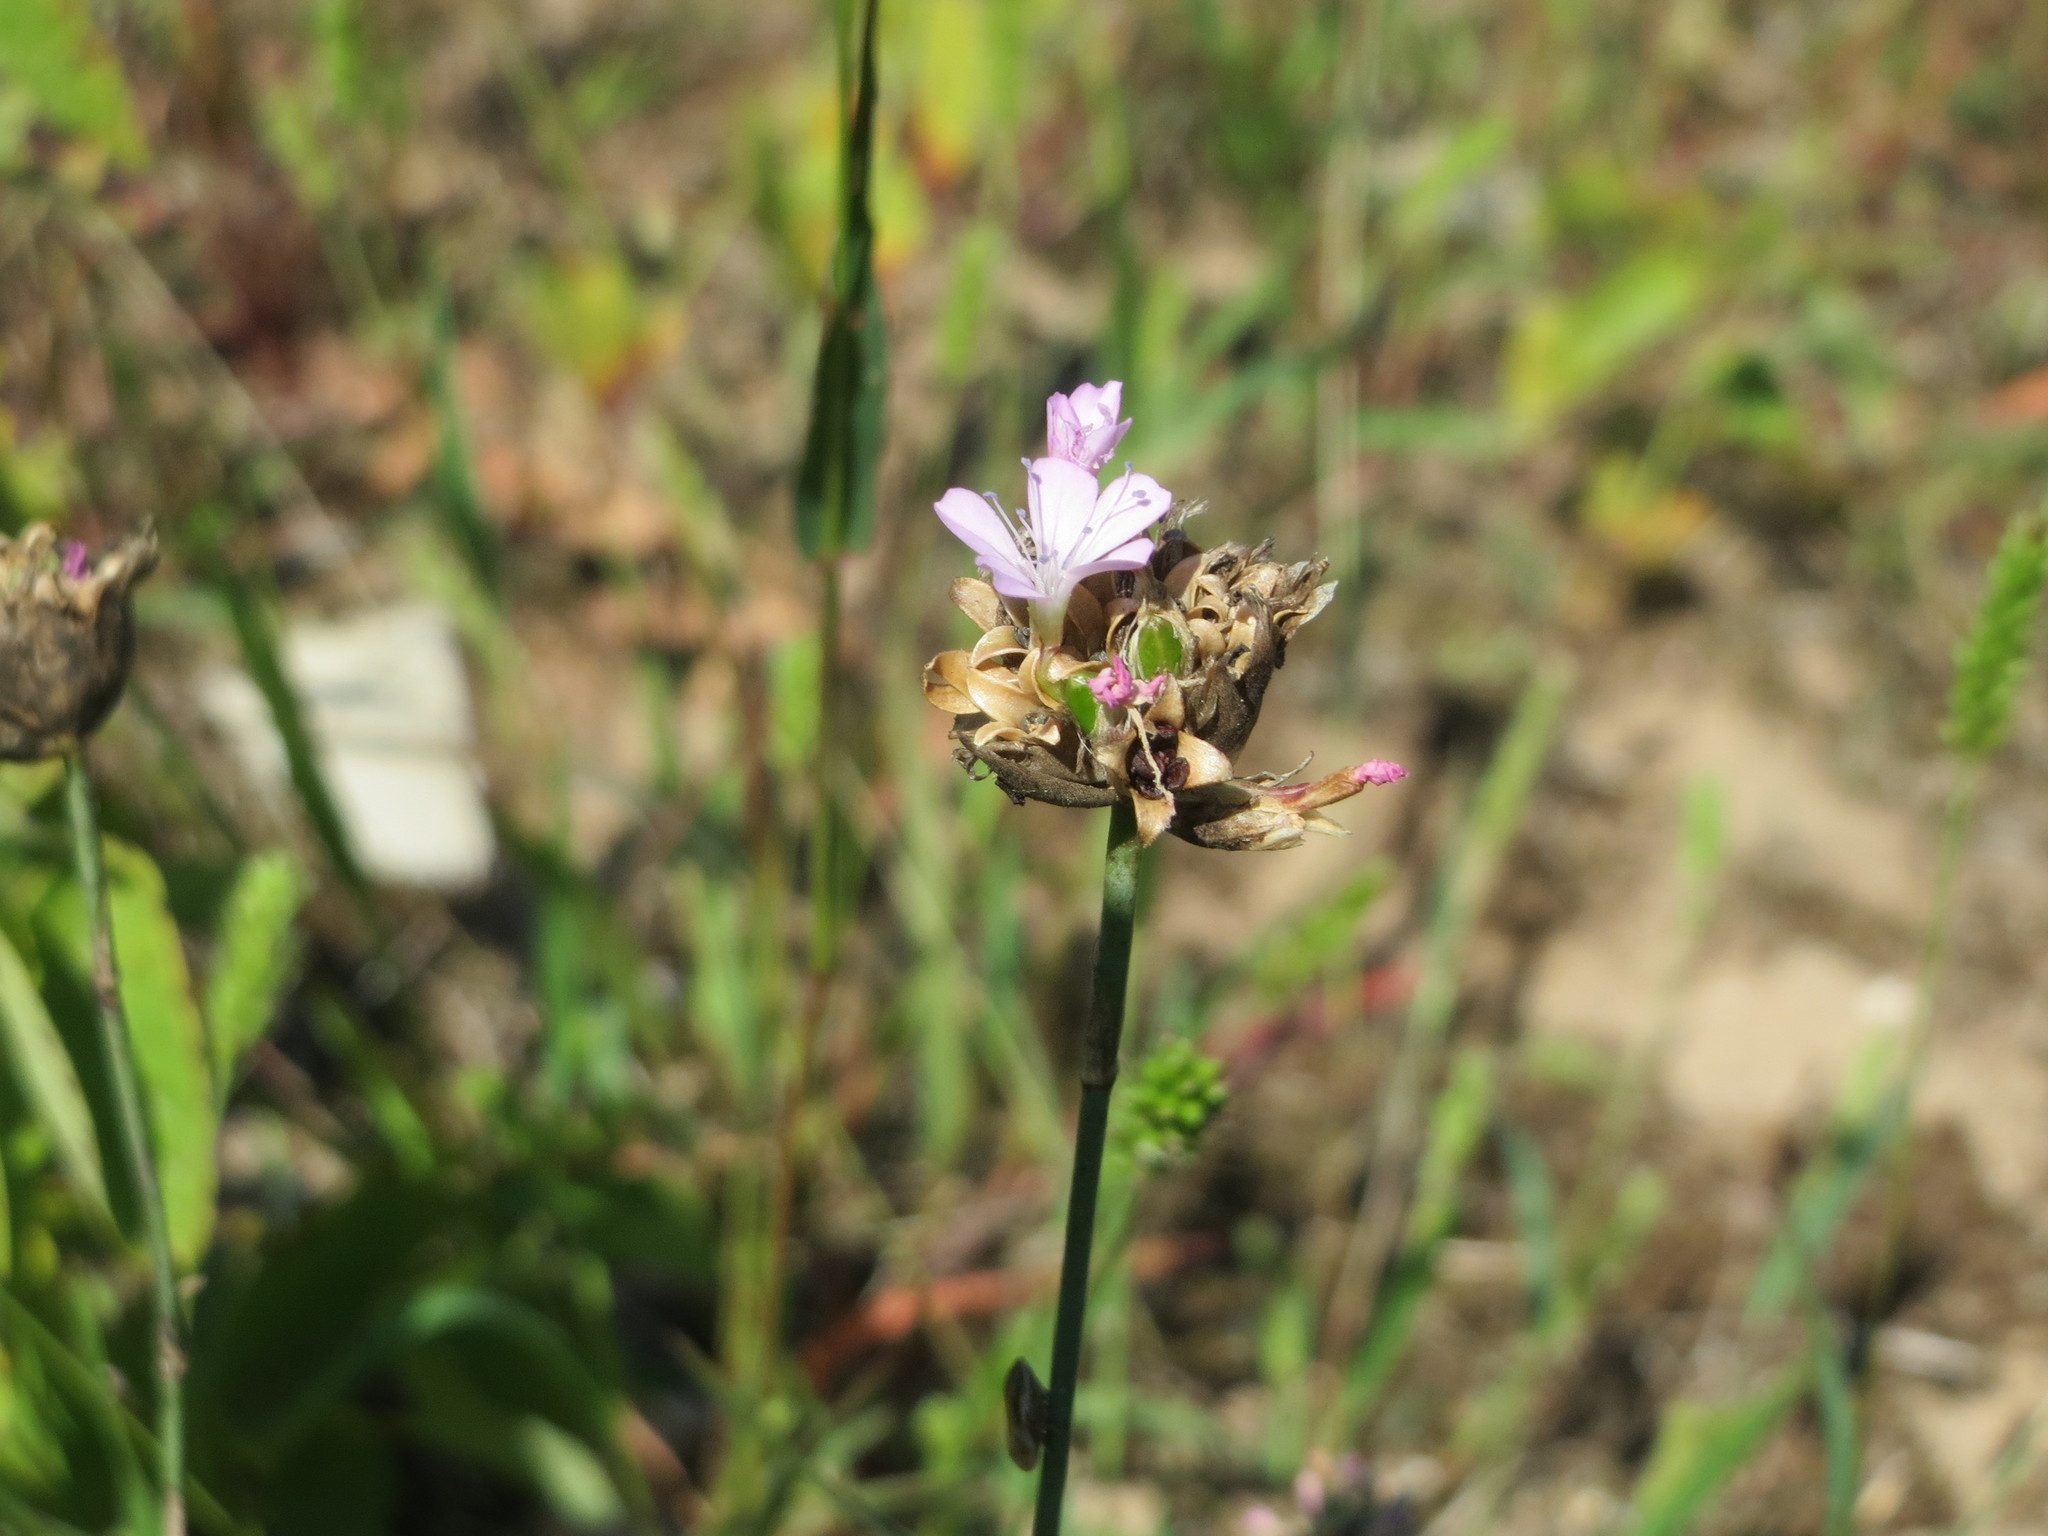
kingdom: Plantae
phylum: Tracheophyta
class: Magnoliopsida
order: Caryophyllales
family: Caryophyllaceae
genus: Petrorhagia
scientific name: Petrorhagia prolifera
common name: Proliferous pink
